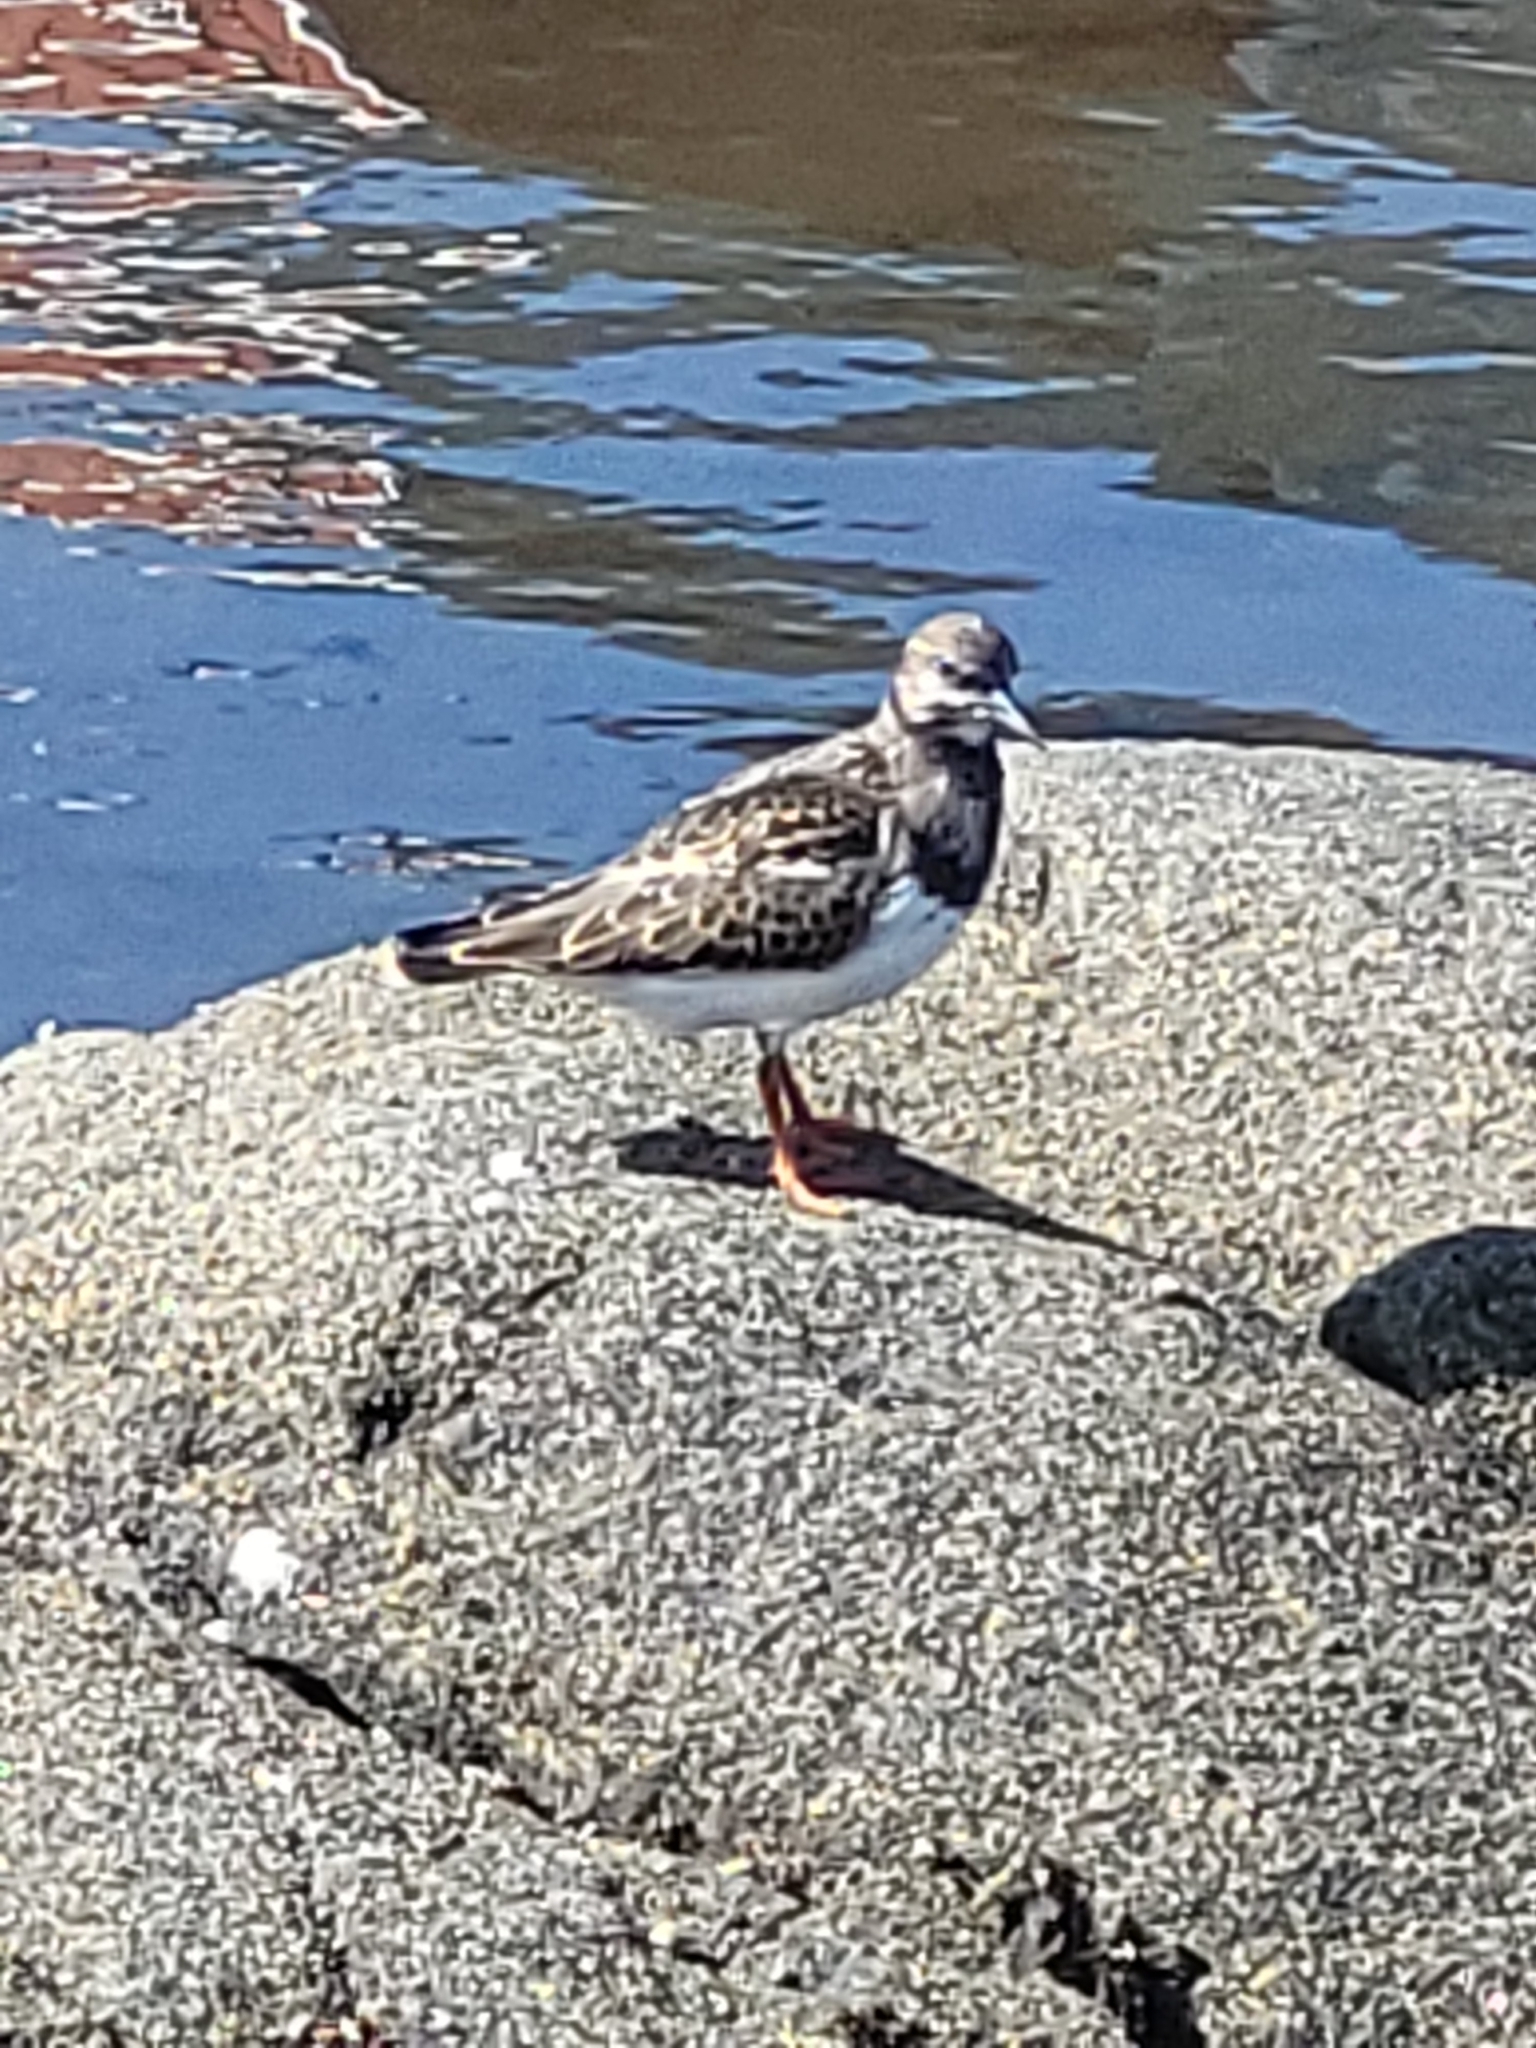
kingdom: Animalia
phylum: Chordata
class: Aves
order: Charadriiformes
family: Scolopacidae
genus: Arenaria
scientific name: Arenaria interpres
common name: Ruddy turnstone
